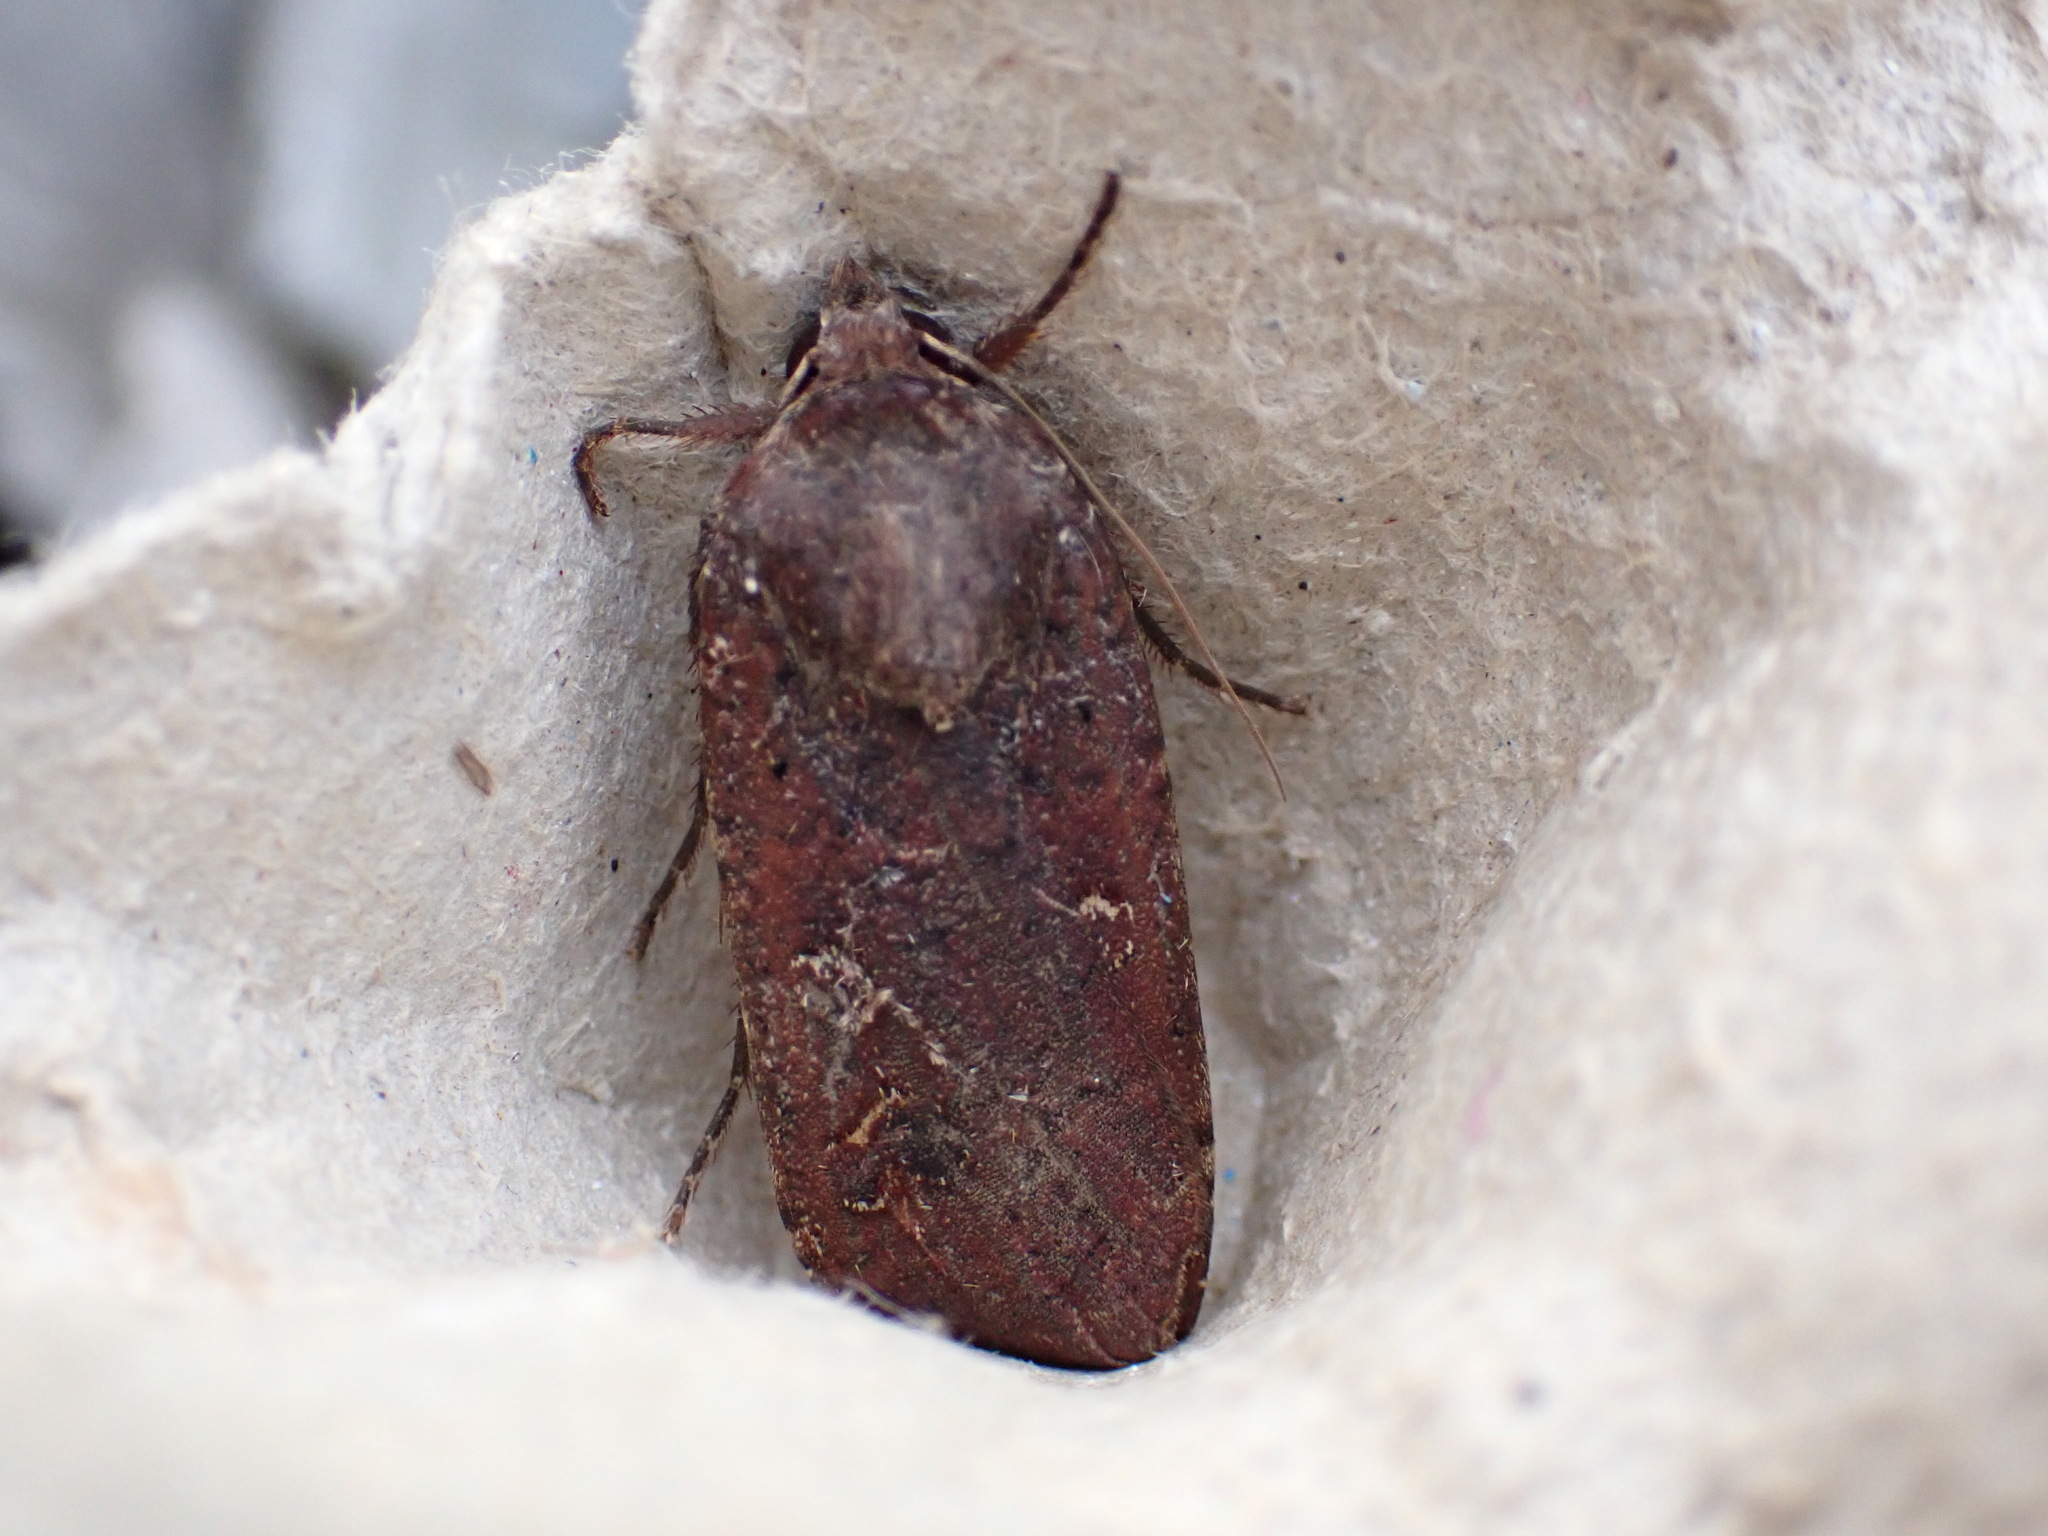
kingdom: Animalia
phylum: Arthropoda
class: Insecta
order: Lepidoptera
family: Noctuidae
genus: Noctua
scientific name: Noctua pronuba
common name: Large yellow underwing
